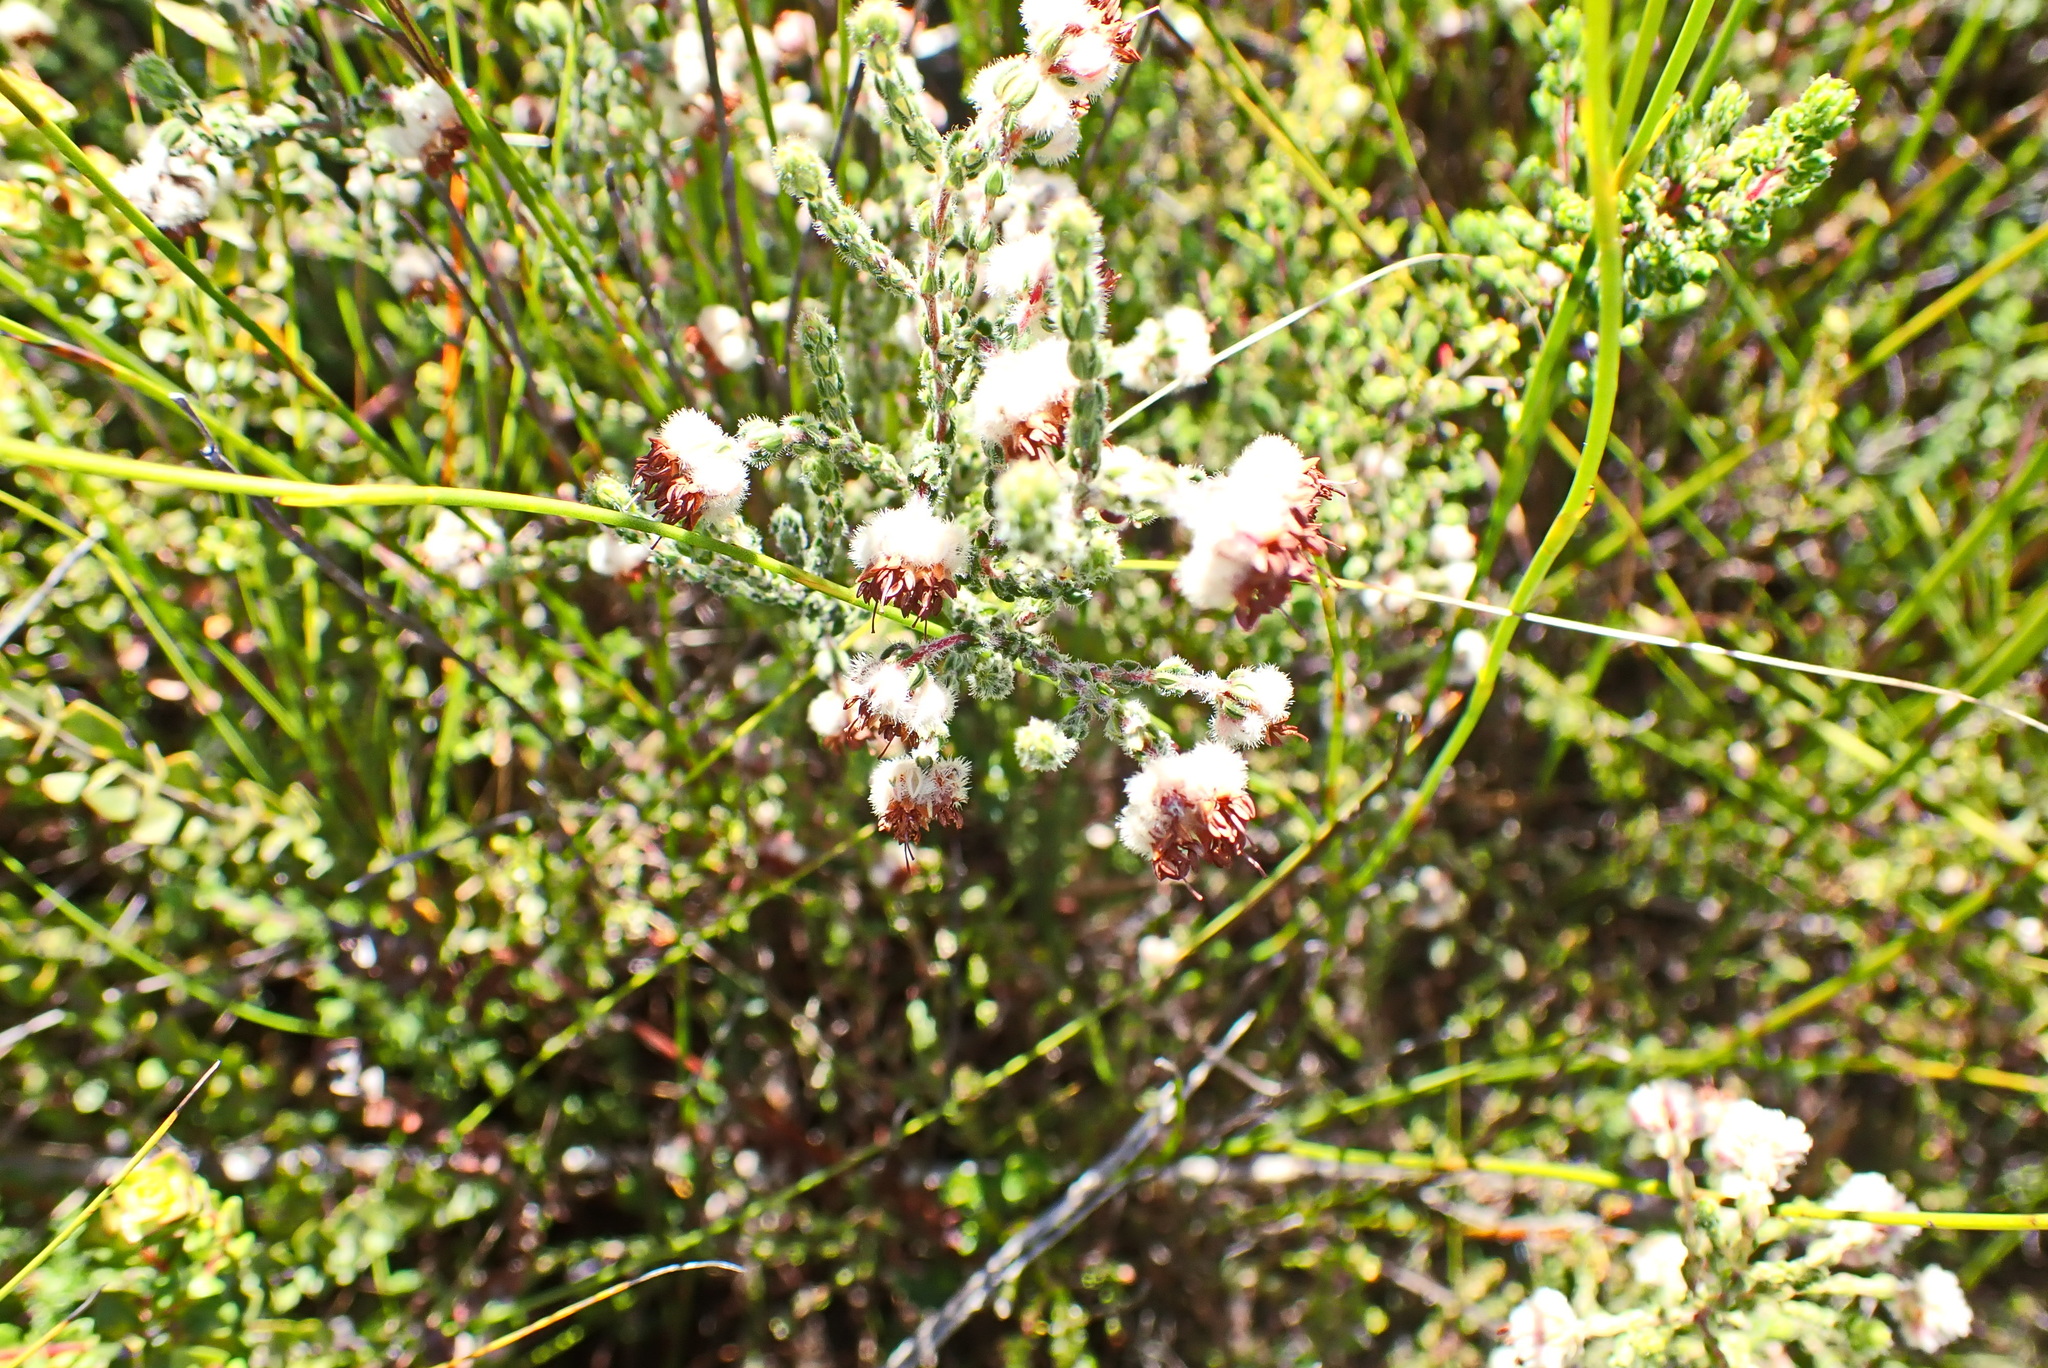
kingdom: Plantae
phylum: Tracheophyta
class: Magnoliopsida
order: Ericales
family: Ericaceae
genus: Erica
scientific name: Erica flaccida
